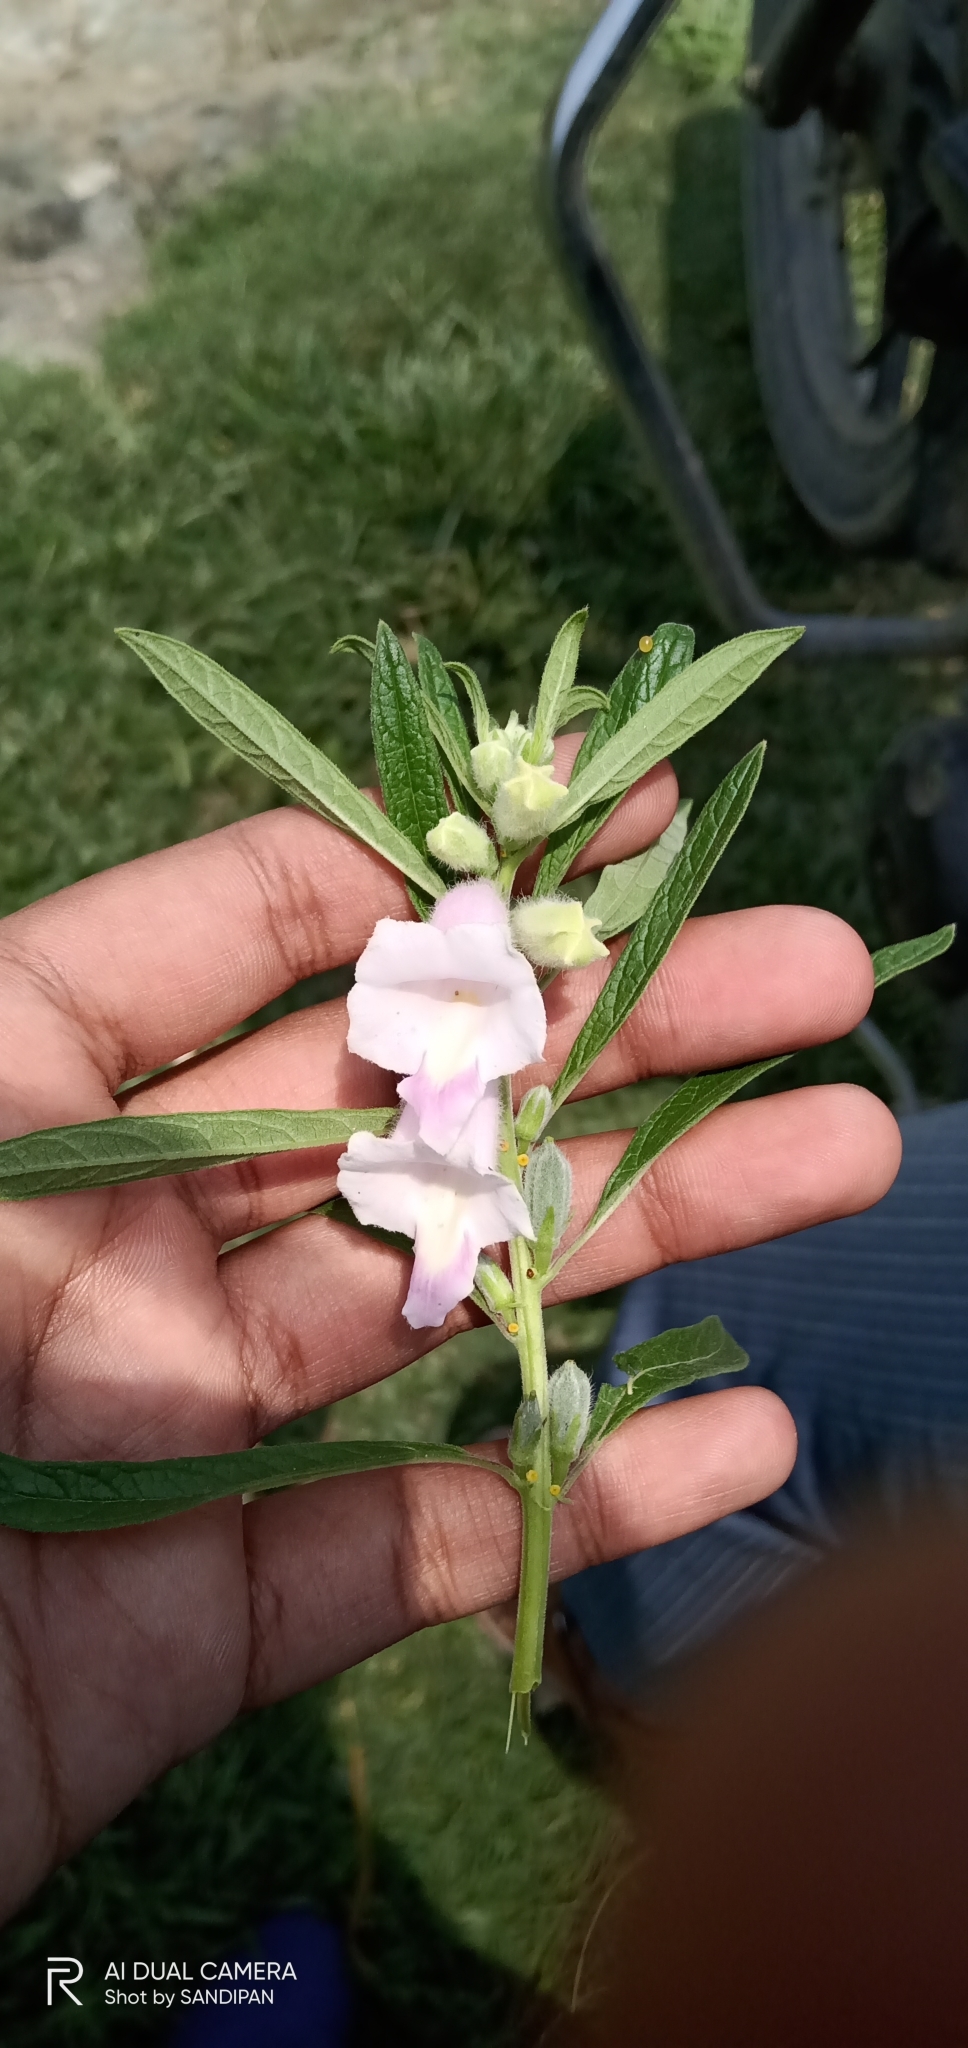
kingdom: Plantae
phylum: Tracheophyta
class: Magnoliopsida
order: Lamiales
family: Pedaliaceae
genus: Sesamum
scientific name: Sesamum indicum
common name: Sesame
